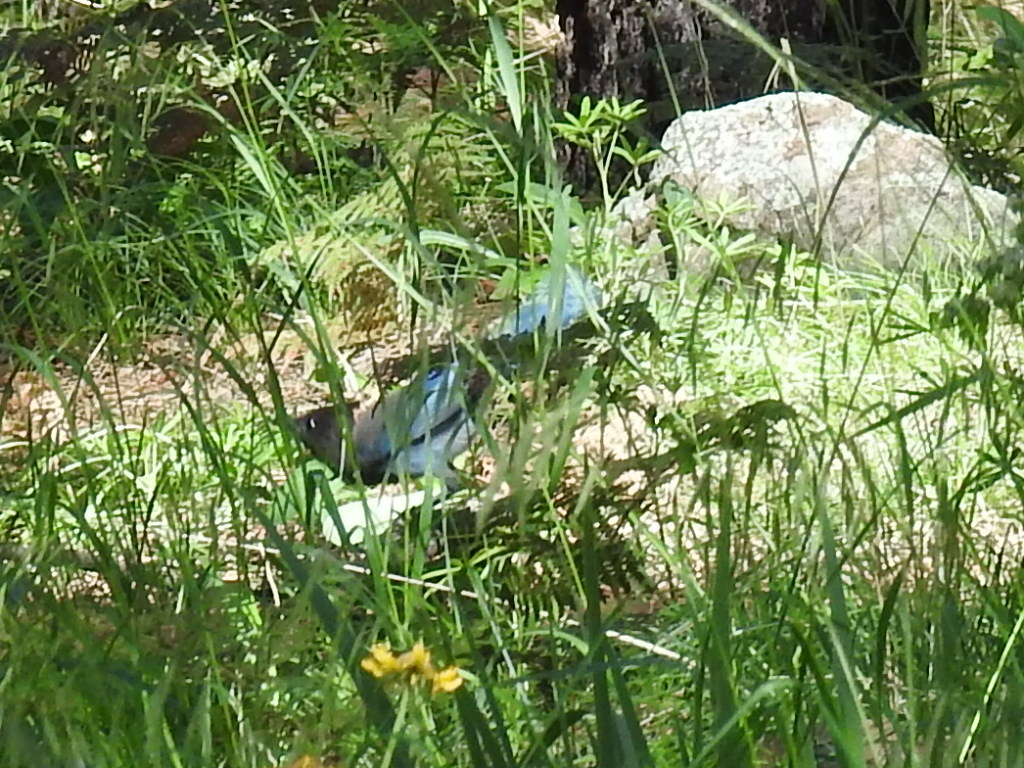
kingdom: Animalia
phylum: Chordata
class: Aves
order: Passeriformes
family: Corvidae
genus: Cyanocitta
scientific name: Cyanocitta stelleri
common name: Steller's jay
